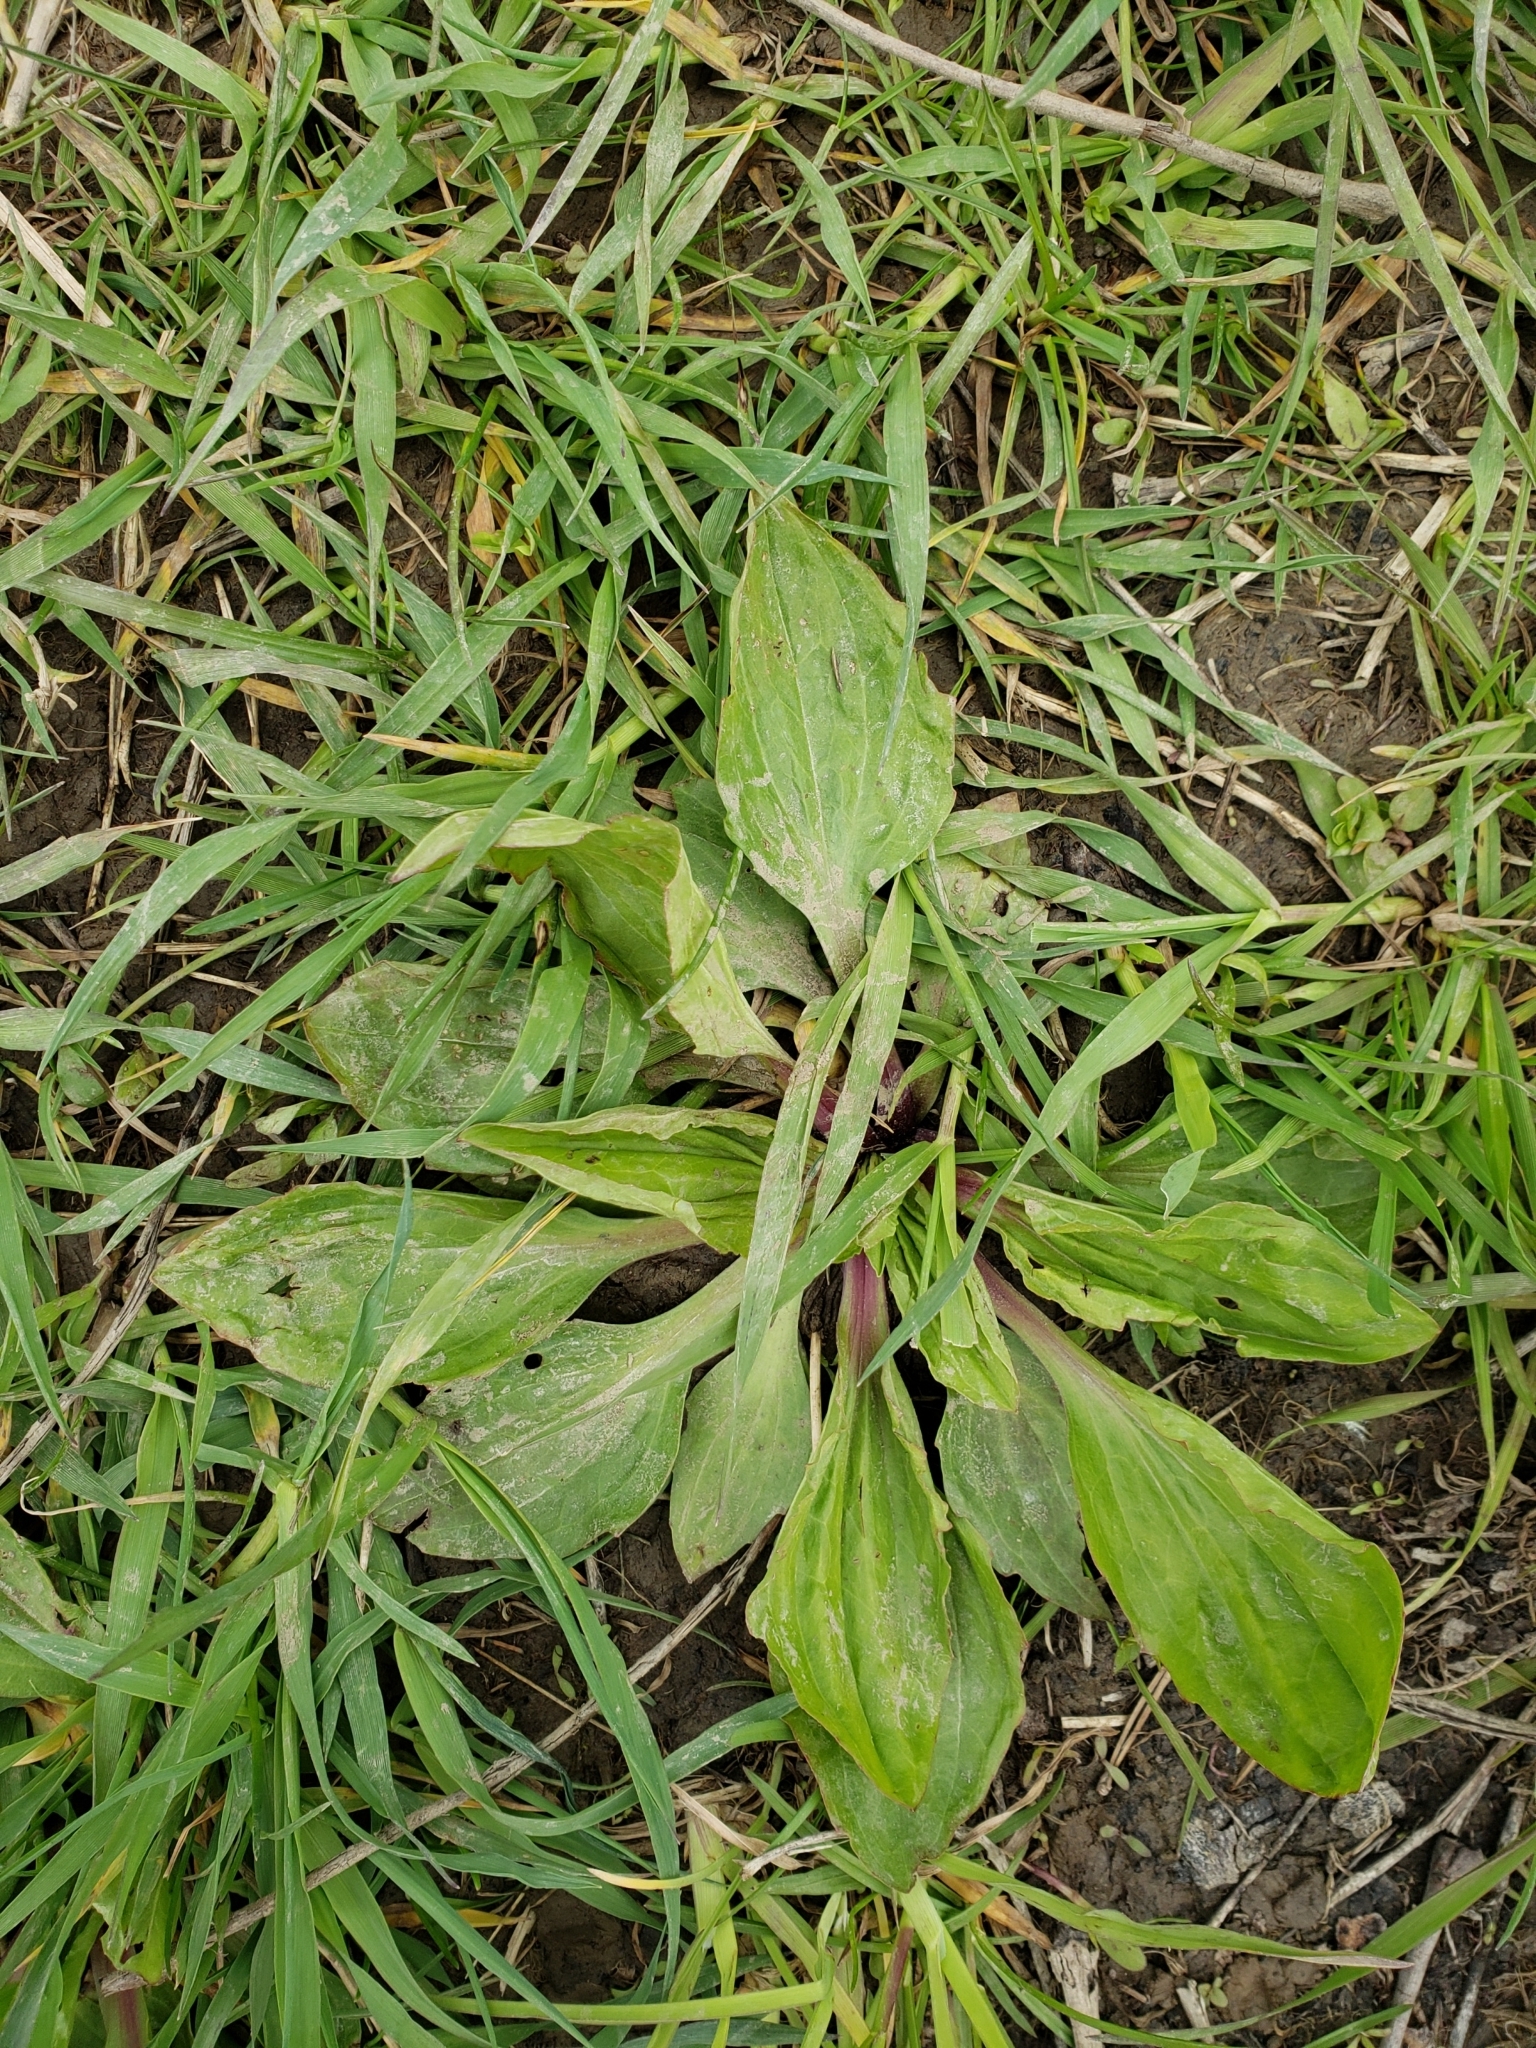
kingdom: Plantae
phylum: Tracheophyta
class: Magnoliopsida
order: Lamiales
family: Plantaginaceae
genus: Plantago
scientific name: Plantago rugelii
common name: American plantain
